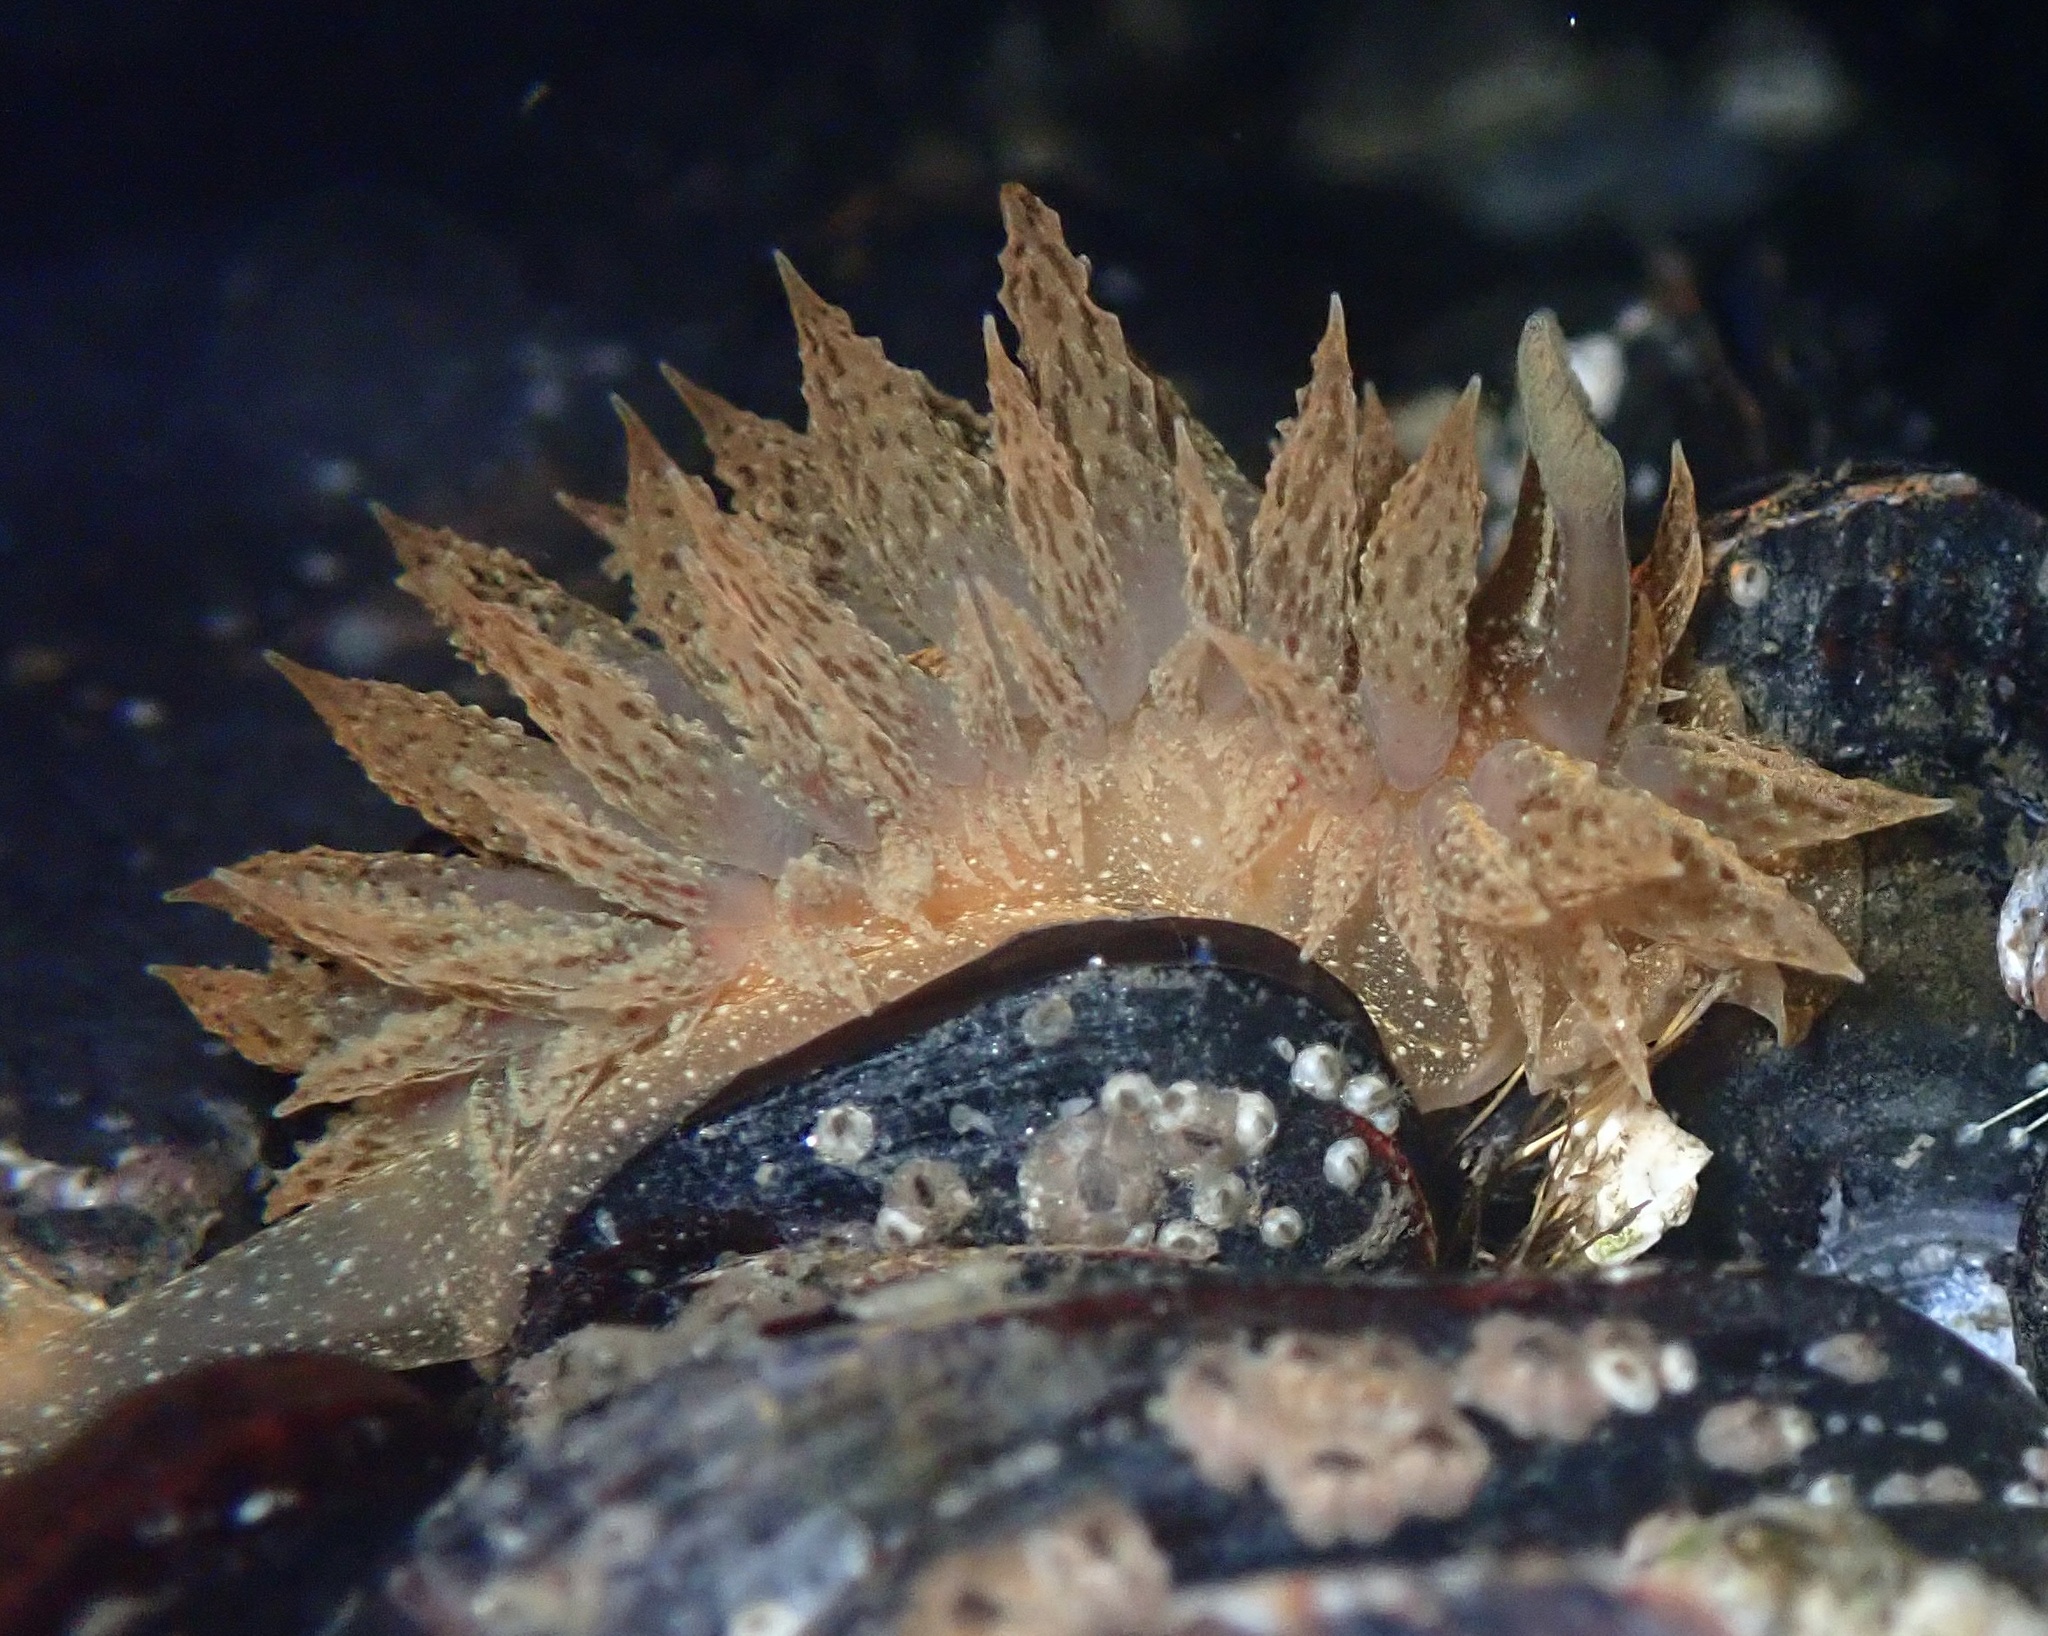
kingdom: Animalia
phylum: Mollusca
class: Gastropoda
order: Nudibranchia
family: Dironidae
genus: Dirona
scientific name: Dirona picta
